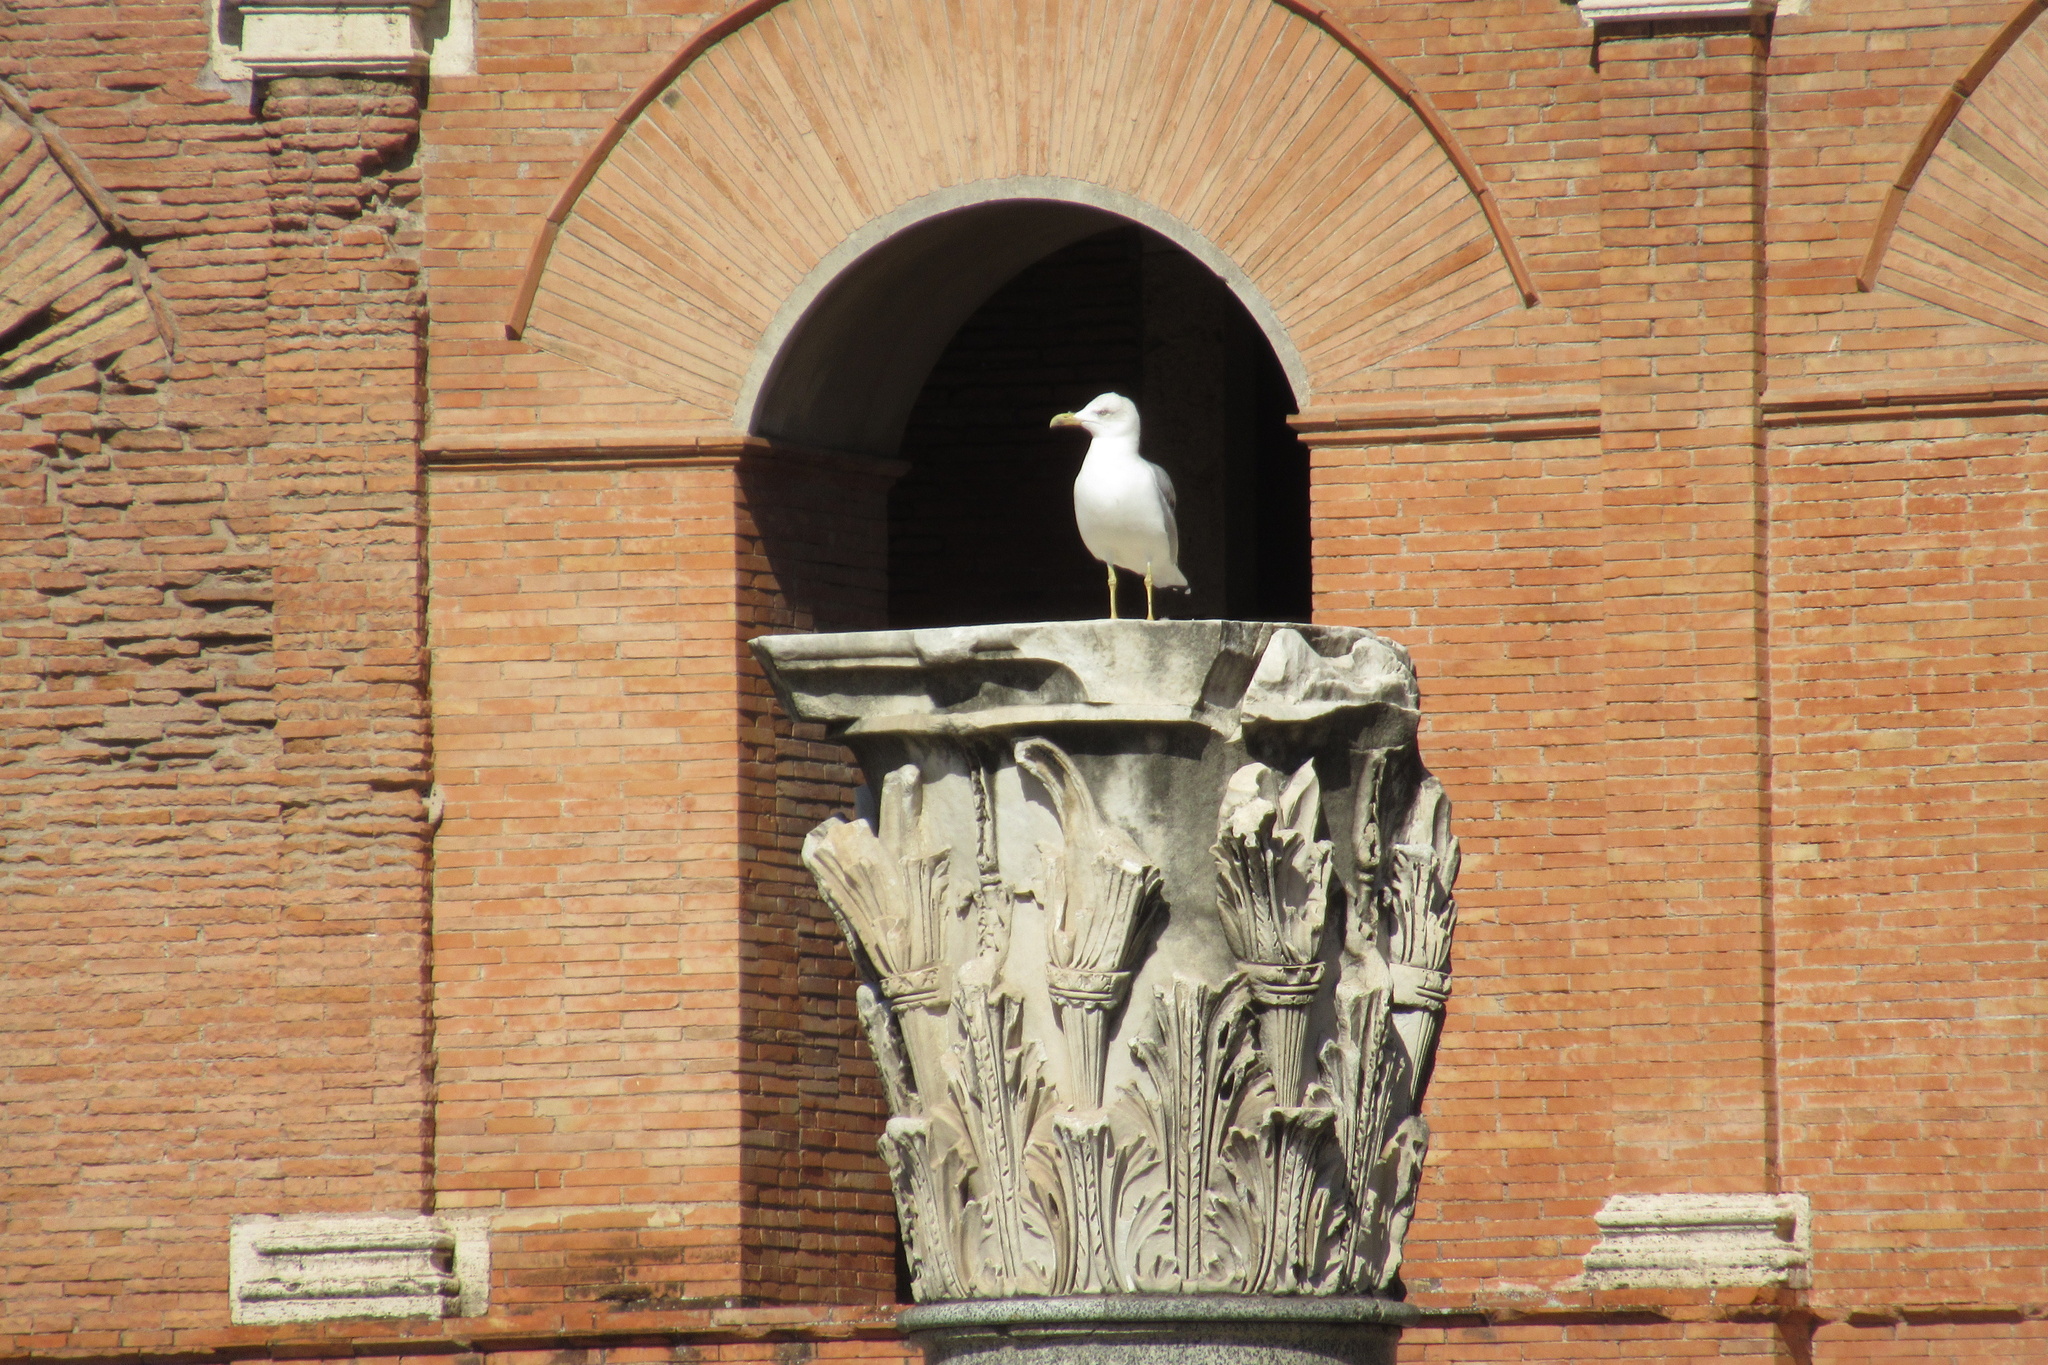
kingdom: Animalia
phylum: Chordata
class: Aves
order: Charadriiformes
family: Laridae
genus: Larus
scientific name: Larus michahellis
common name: Yellow-legged gull
